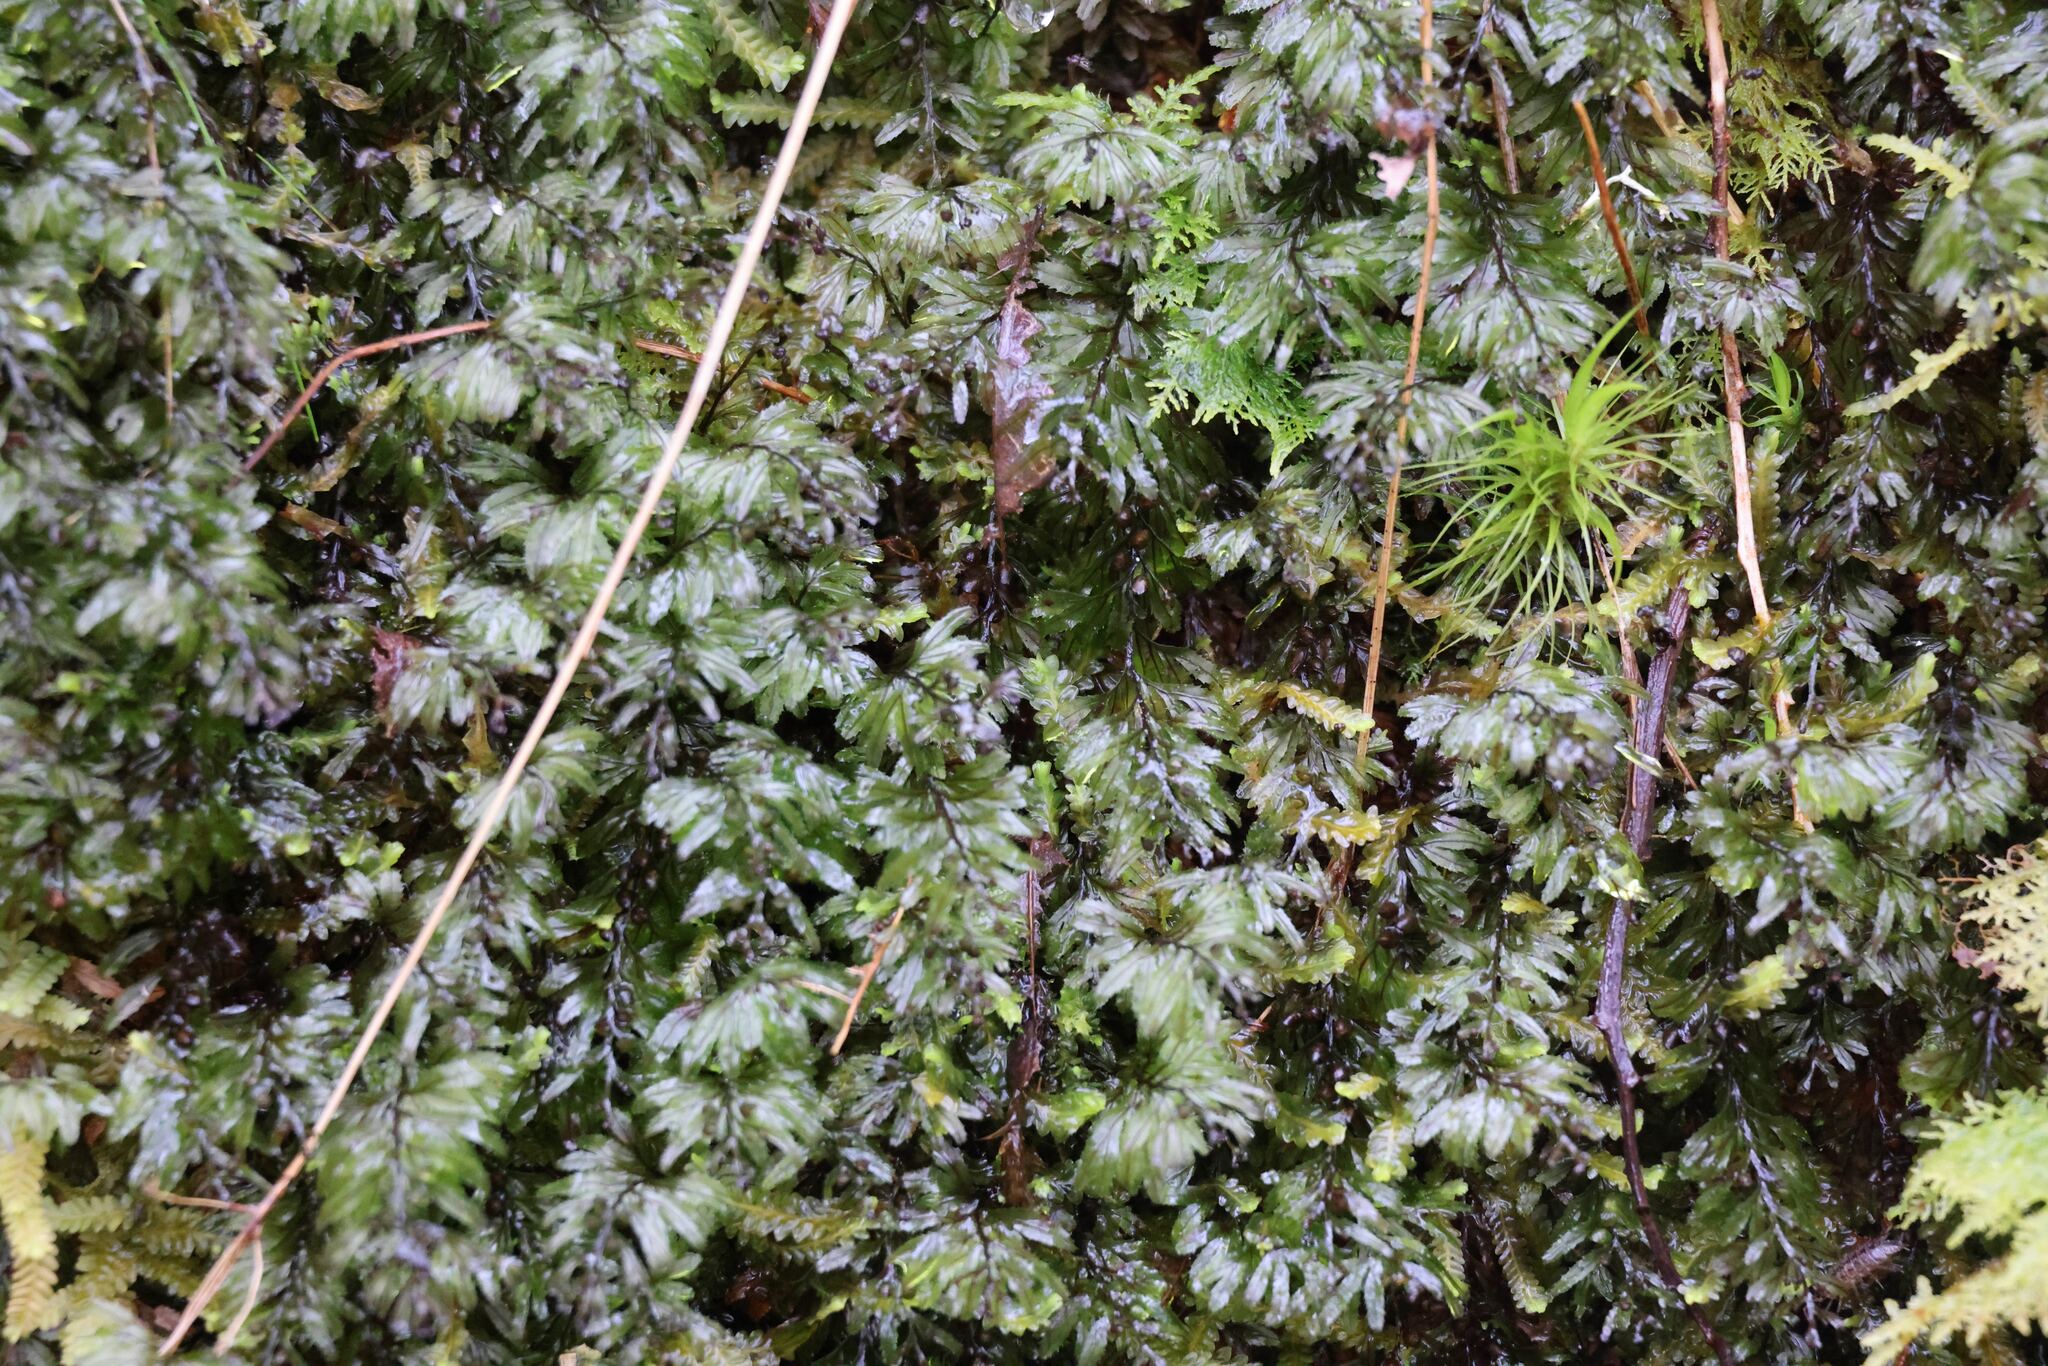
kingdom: Plantae
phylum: Tracheophyta
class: Polypodiopsida
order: Hymenophyllales
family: Hymenophyllaceae
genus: Hymenophyllum
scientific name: Hymenophyllum wilsonii
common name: Wilson's filmy fern
